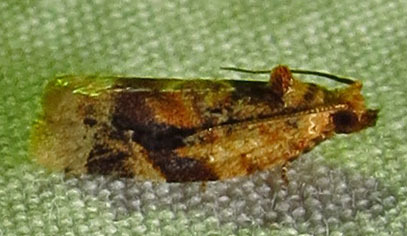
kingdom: Animalia
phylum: Arthropoda
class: Insecta
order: Lepidoptera
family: Tortricidae
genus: Argyrotaenia
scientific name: Argyrotaenia velutinana
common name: Red-banded leafroller moth
